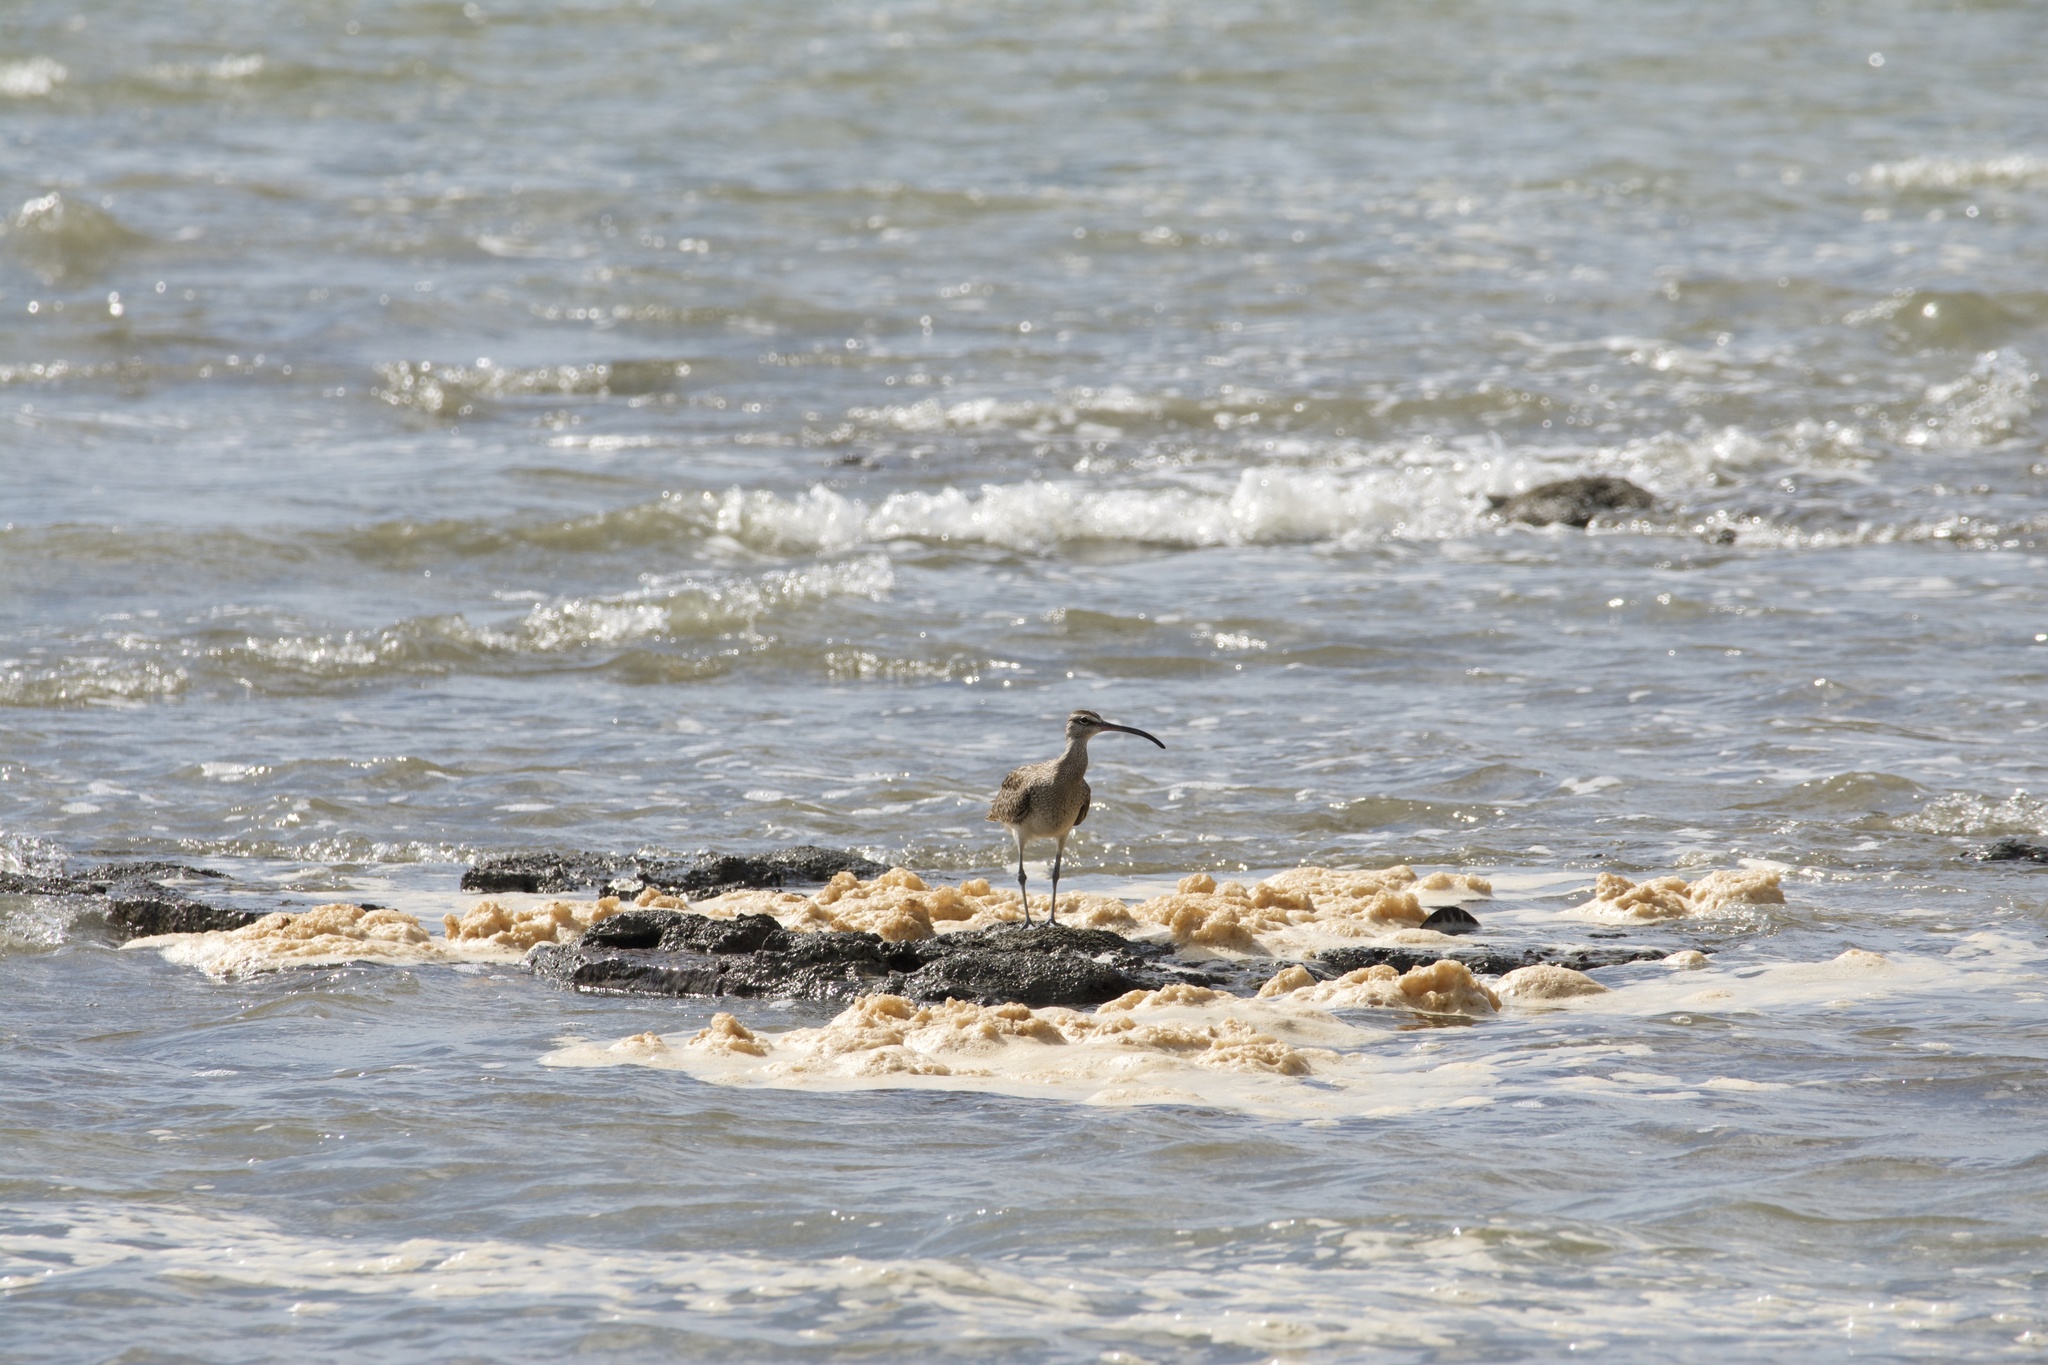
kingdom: Animalia
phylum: Chordata
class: Aves
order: Charadriiformes
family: Scolopacidae
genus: Numenius
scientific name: Numenius phaeopus
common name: Whimbrel
